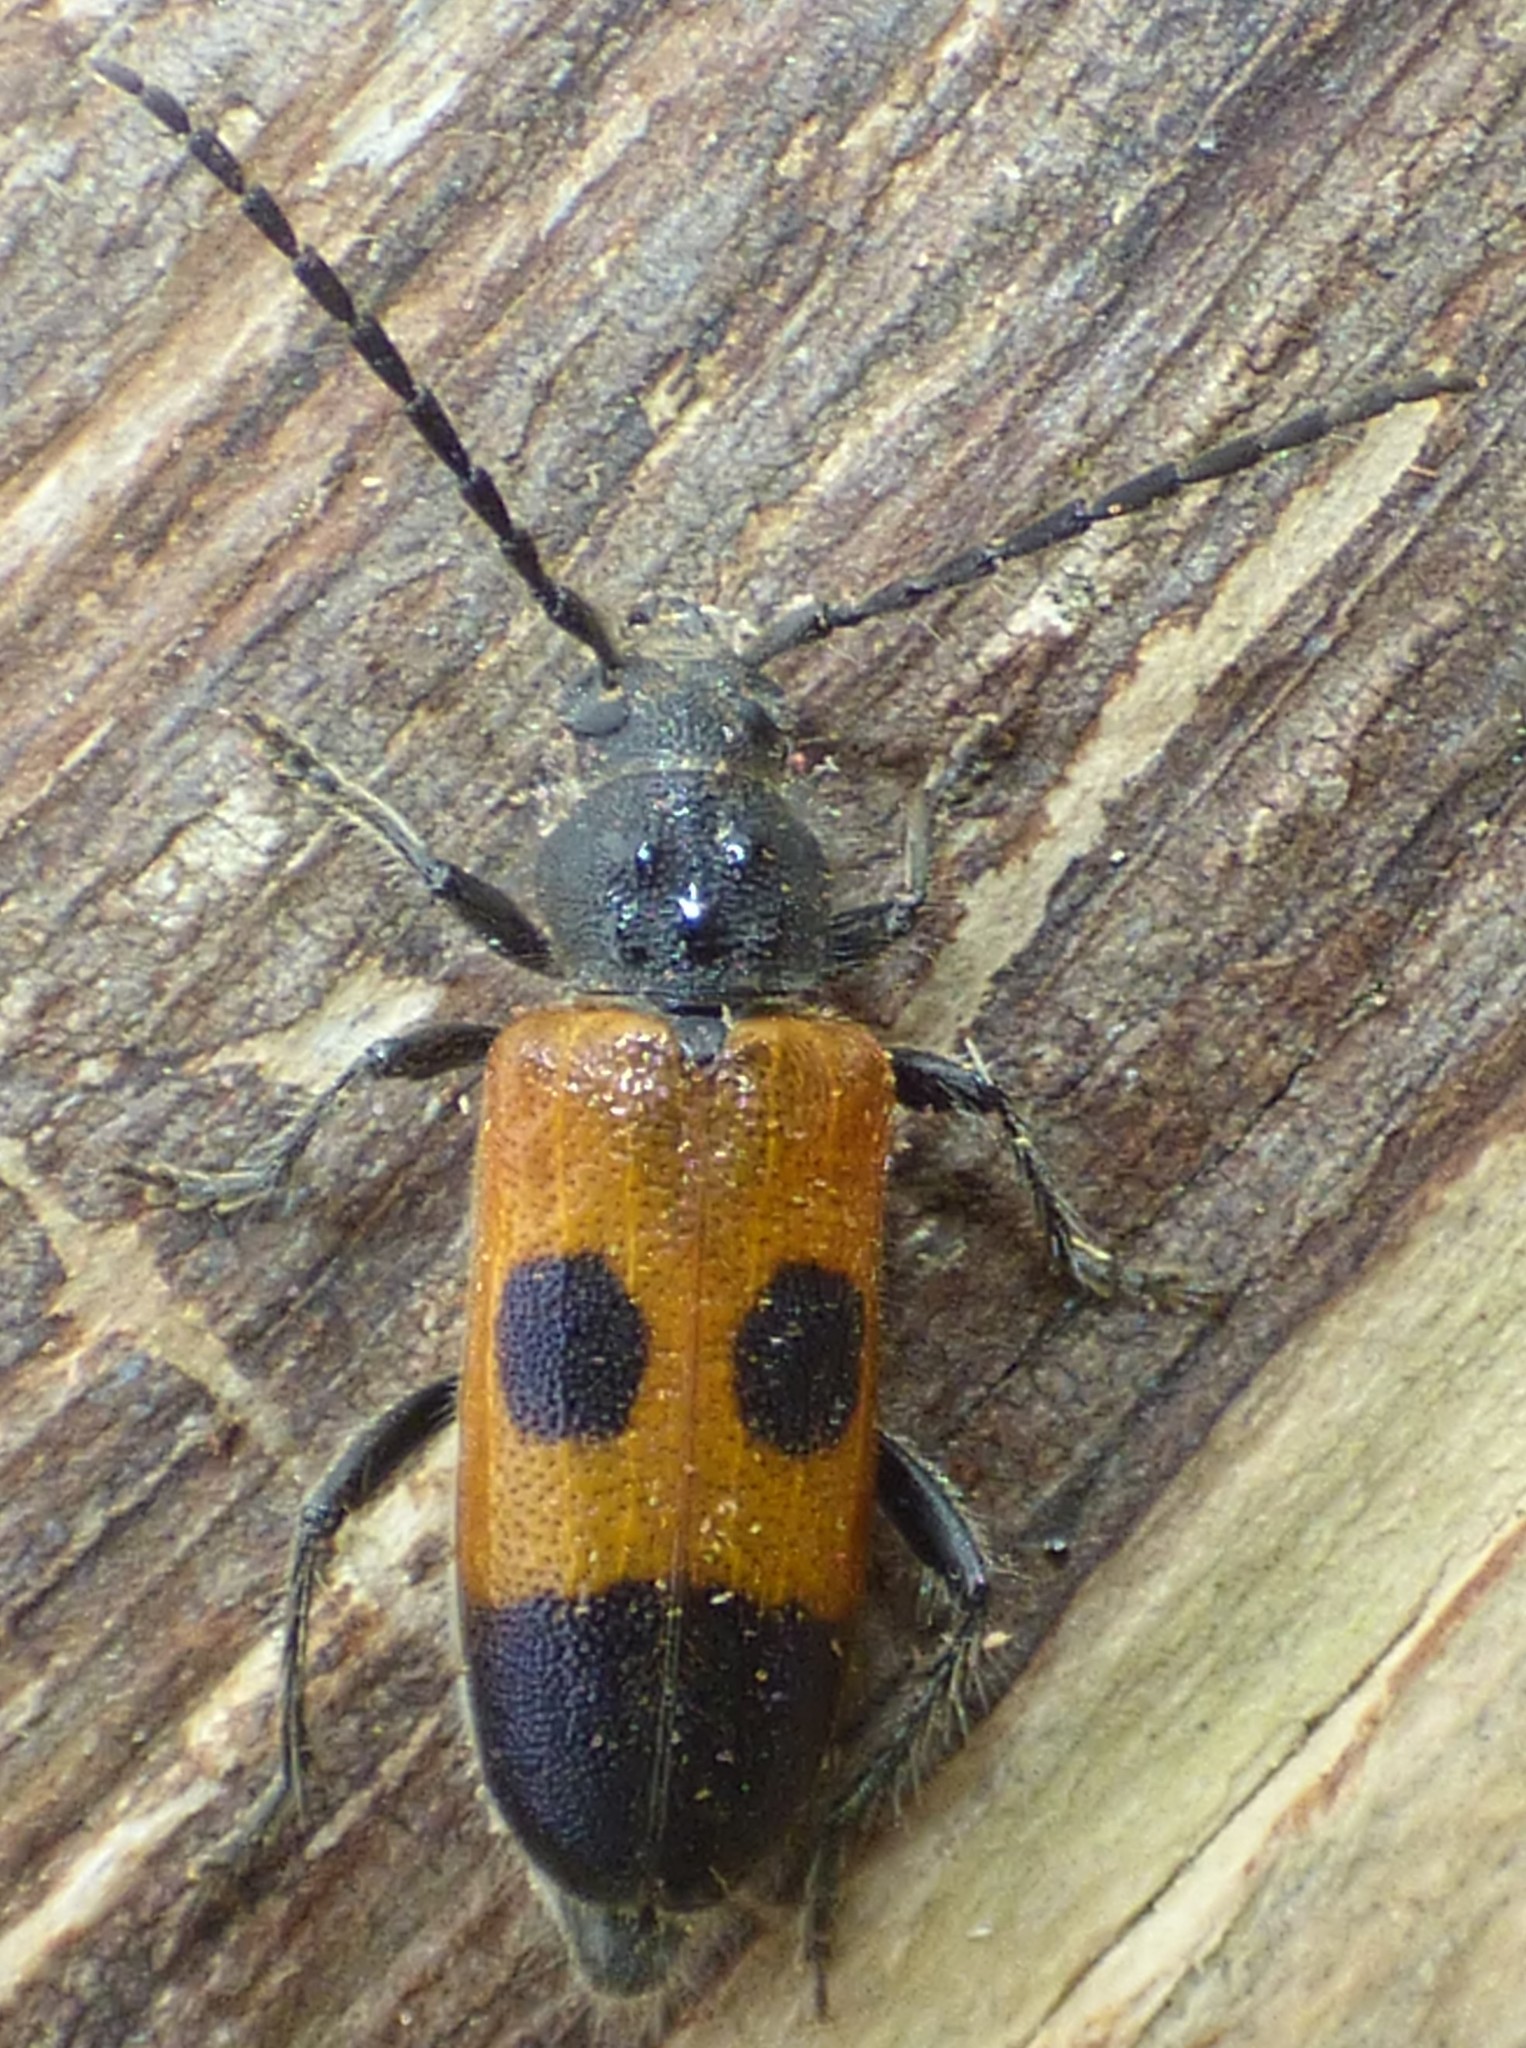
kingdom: Animalia
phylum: Arthropoda
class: Insecta
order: Coleoptera
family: Cerambycidae
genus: Semanotus
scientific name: Semanotus ligneus
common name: Cedartree borer
